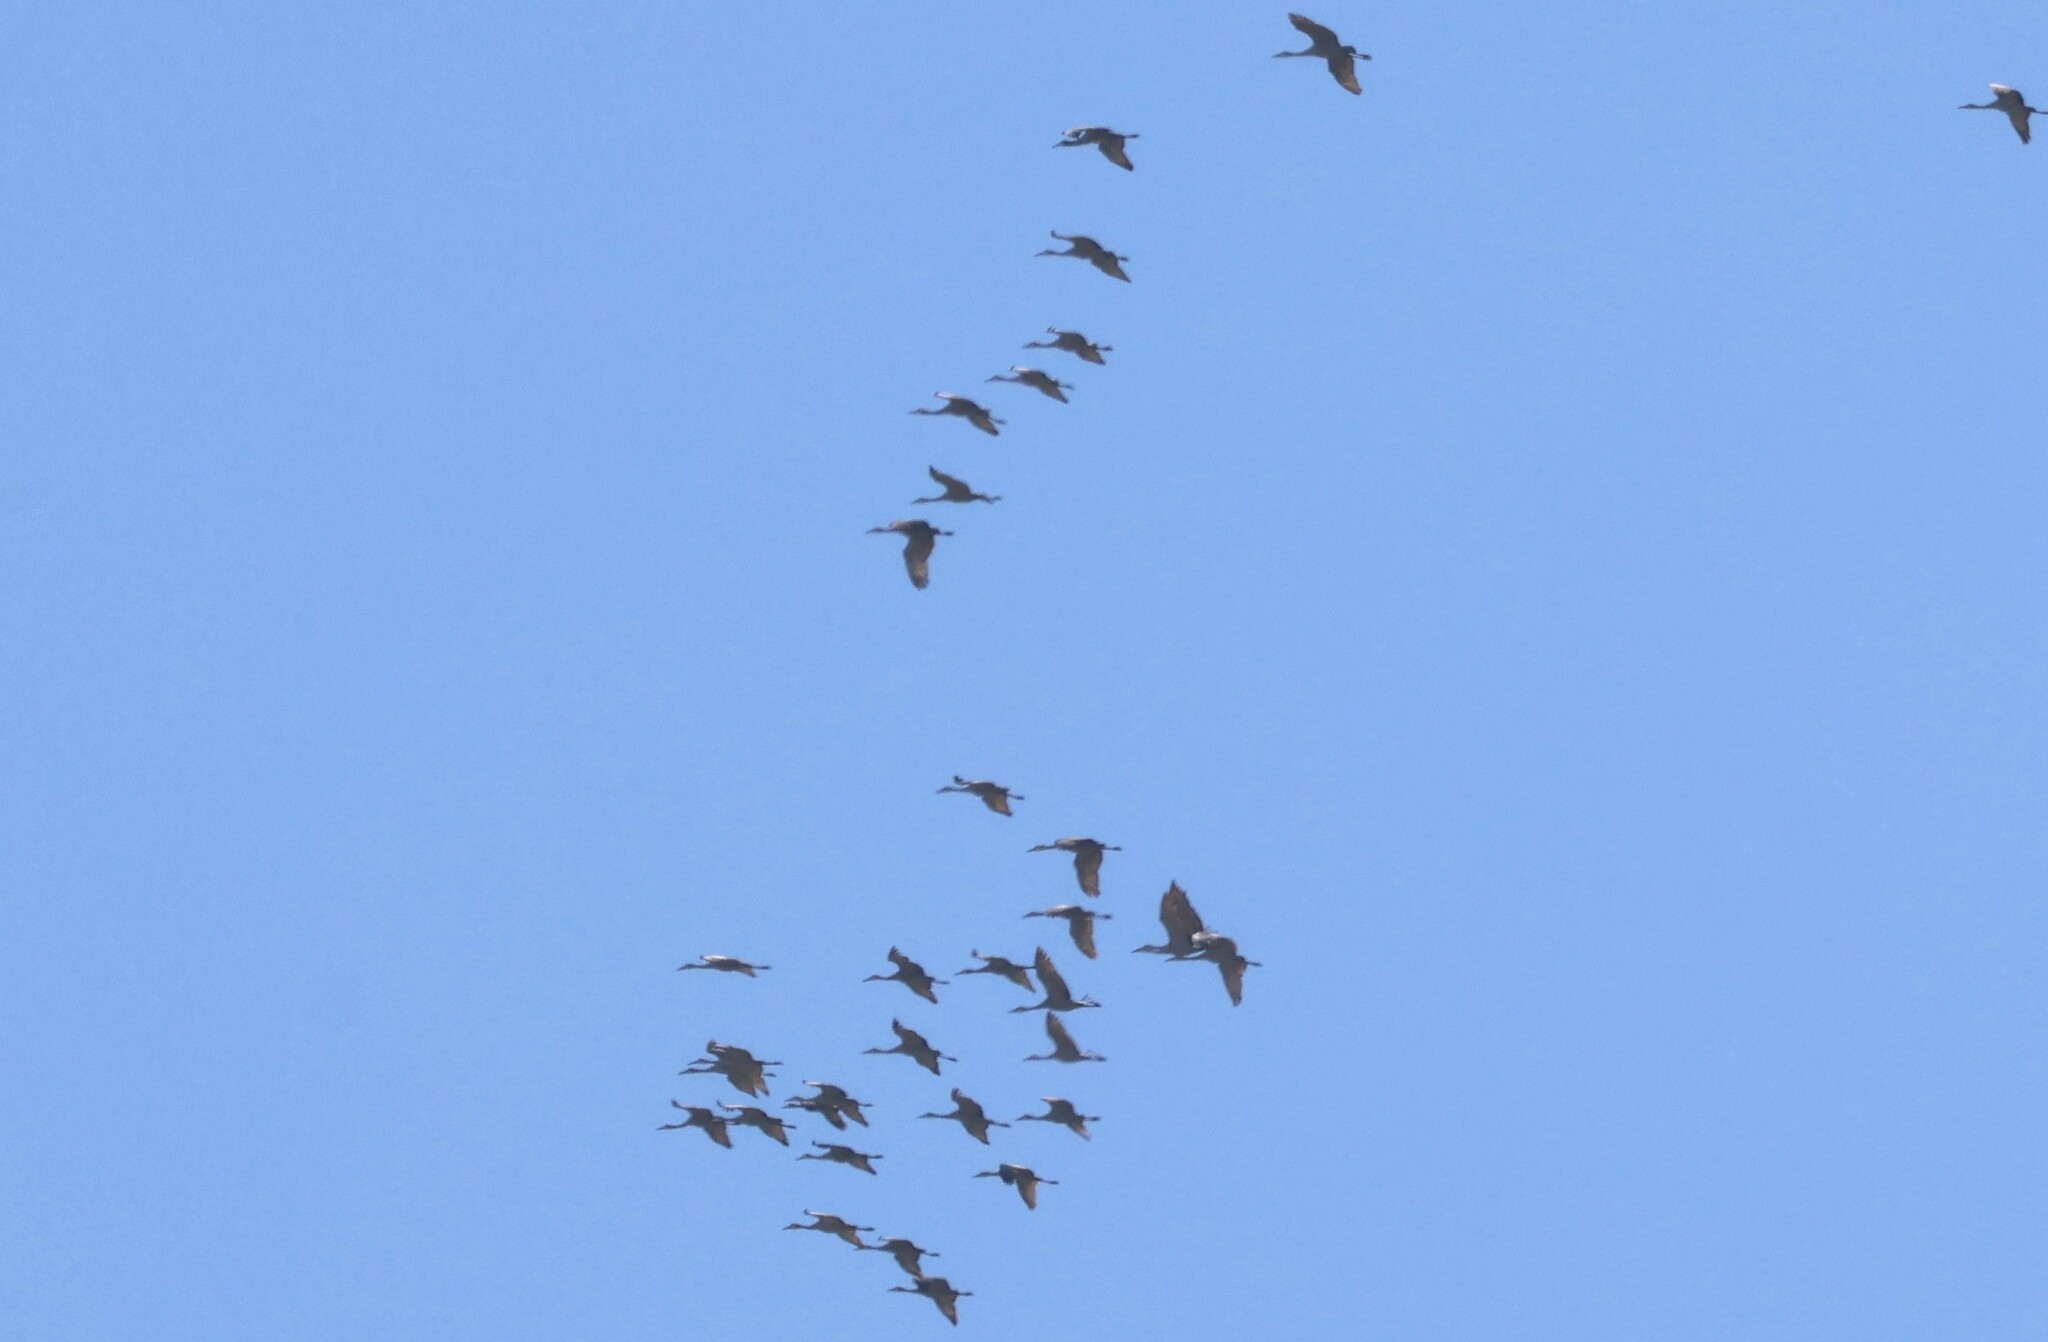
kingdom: Animalia
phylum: Chordata
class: Aves
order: Gruiformes
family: Gruidae
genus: Grus
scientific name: Grus canadensis
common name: Sandhill crane
